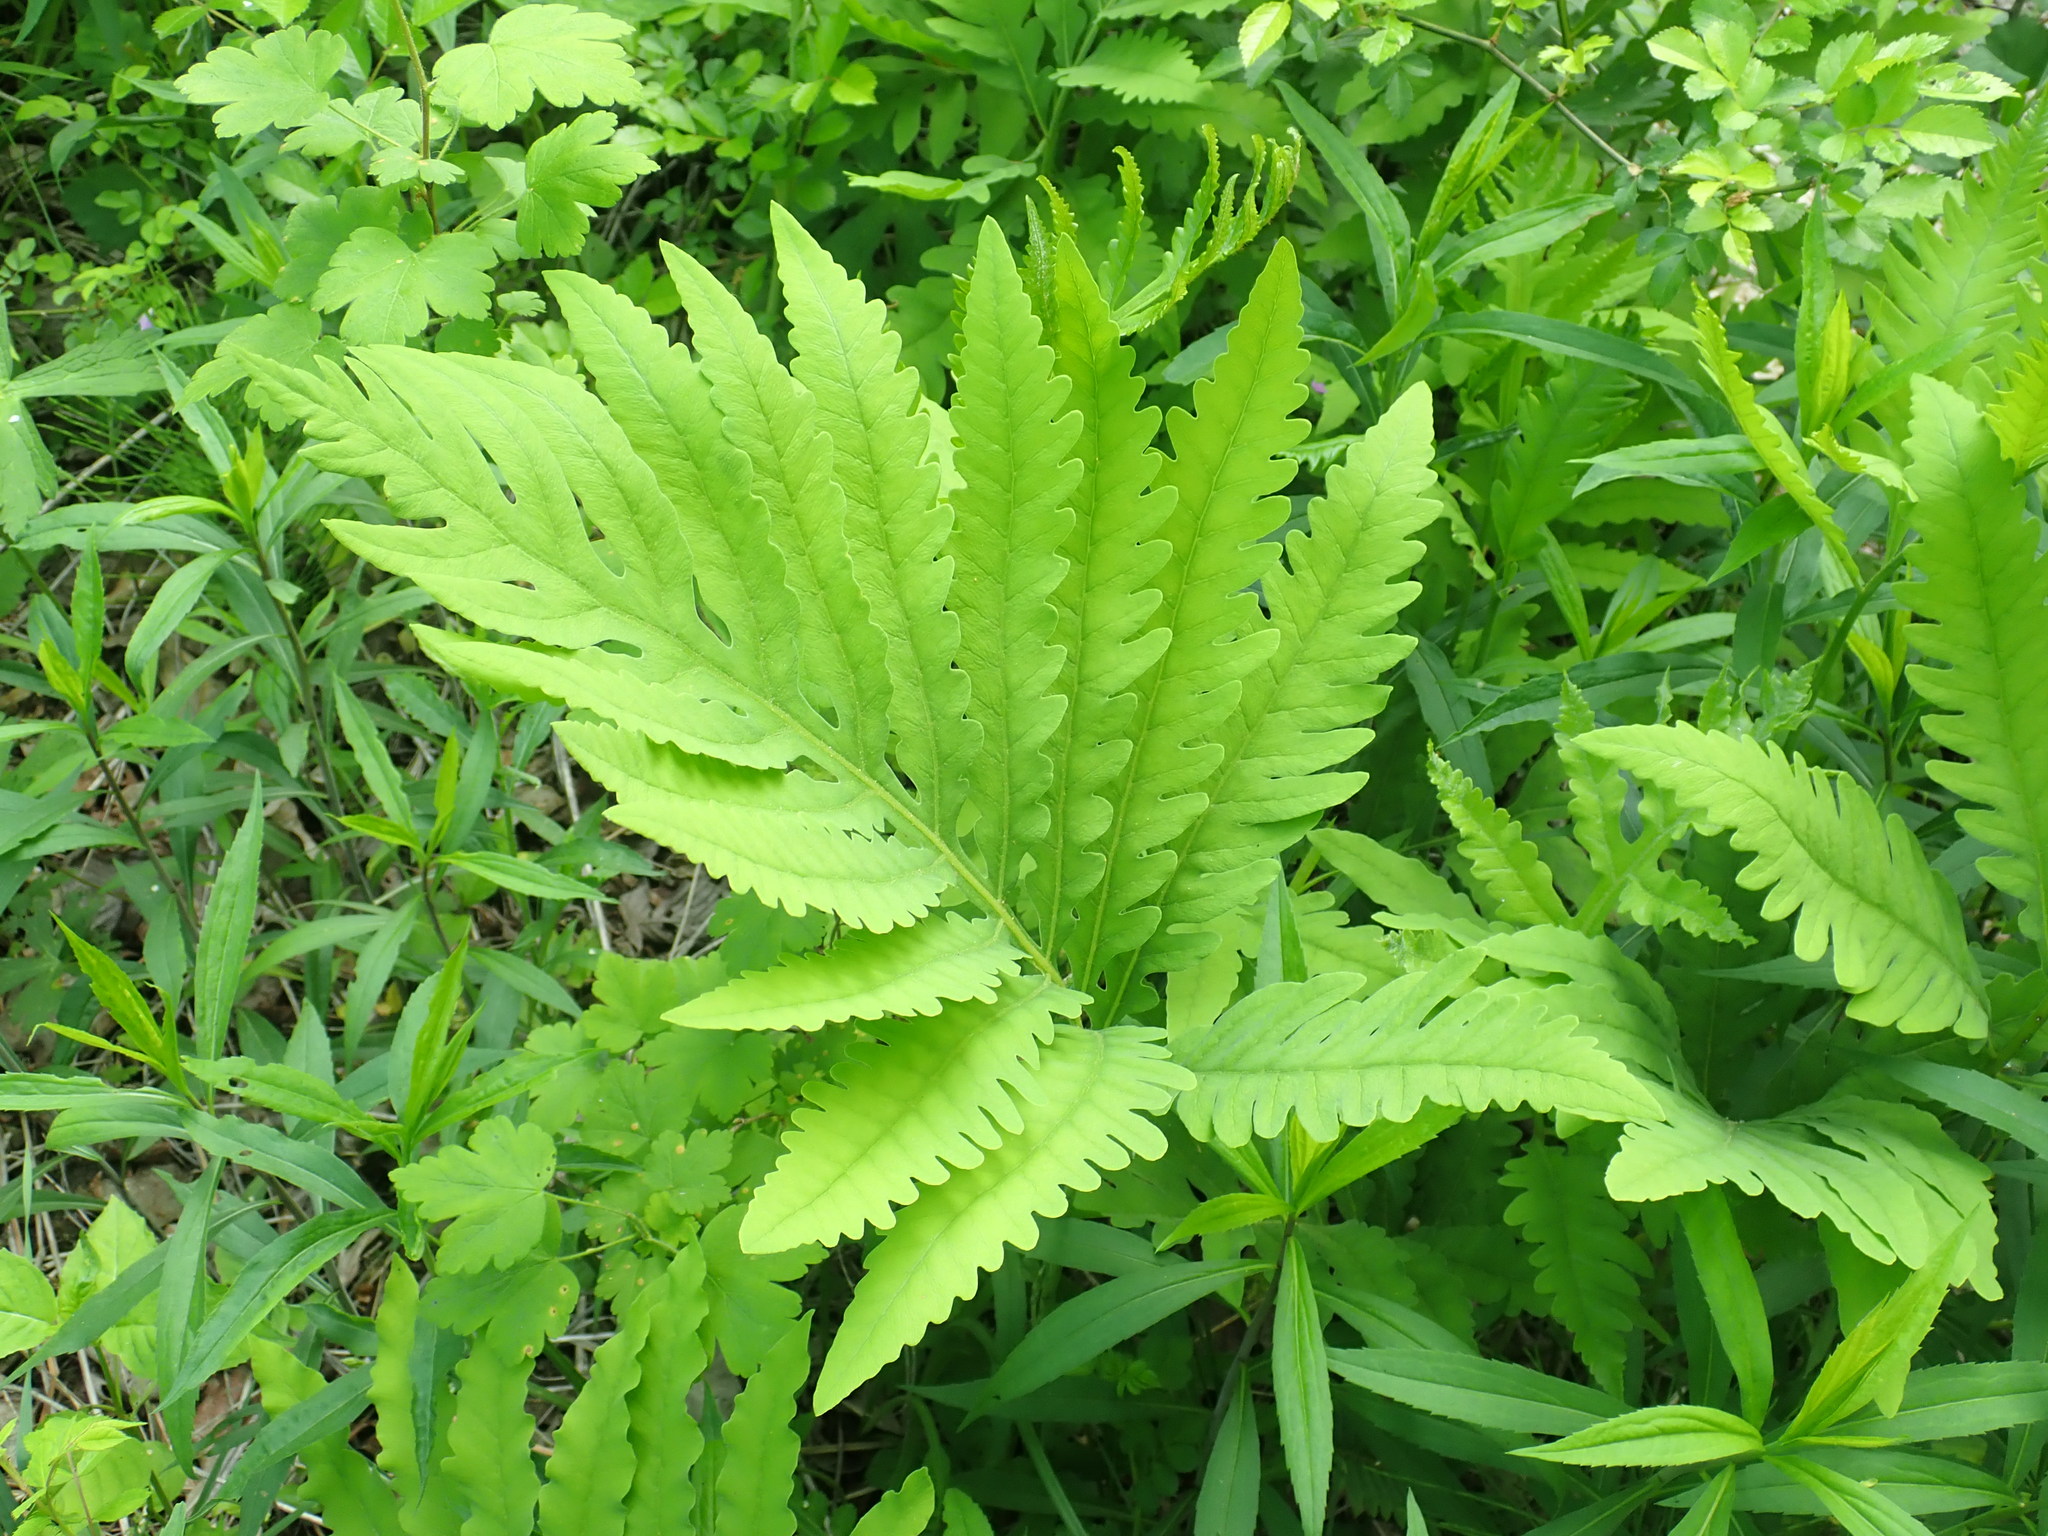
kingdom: Plantae
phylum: Tracheophyta
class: Polypodiopsida
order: Polypodiales
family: Onocleaceae
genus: Onoclea
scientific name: Onoclea sensibilis
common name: Sensitive fern
